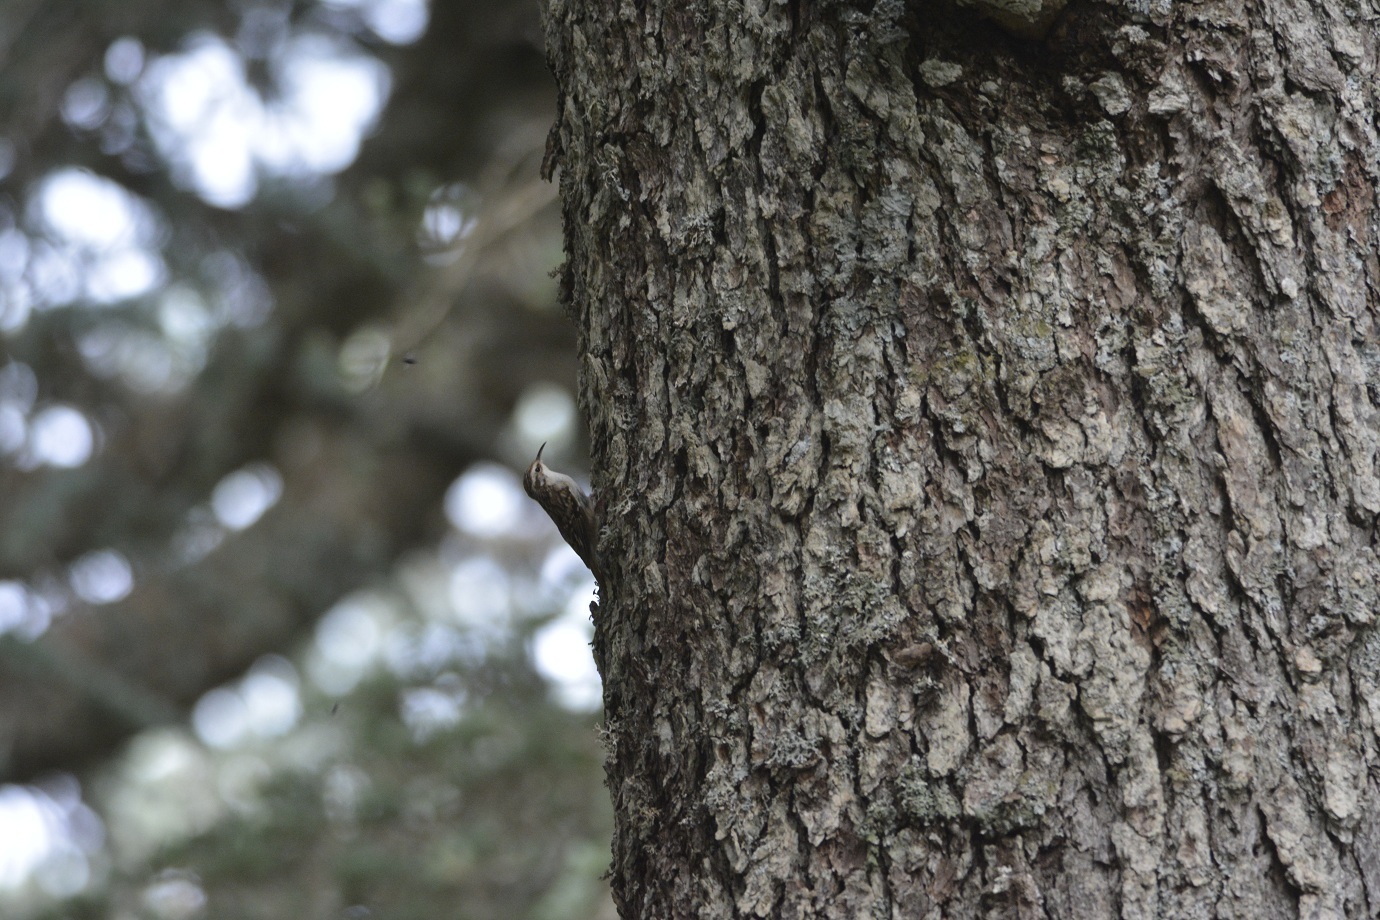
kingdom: Animalia
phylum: Chordata
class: Aves
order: Passeriformes
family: Certhiidae
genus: Certhia
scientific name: Certhia brachydactyla
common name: Short-toed treecreeper
